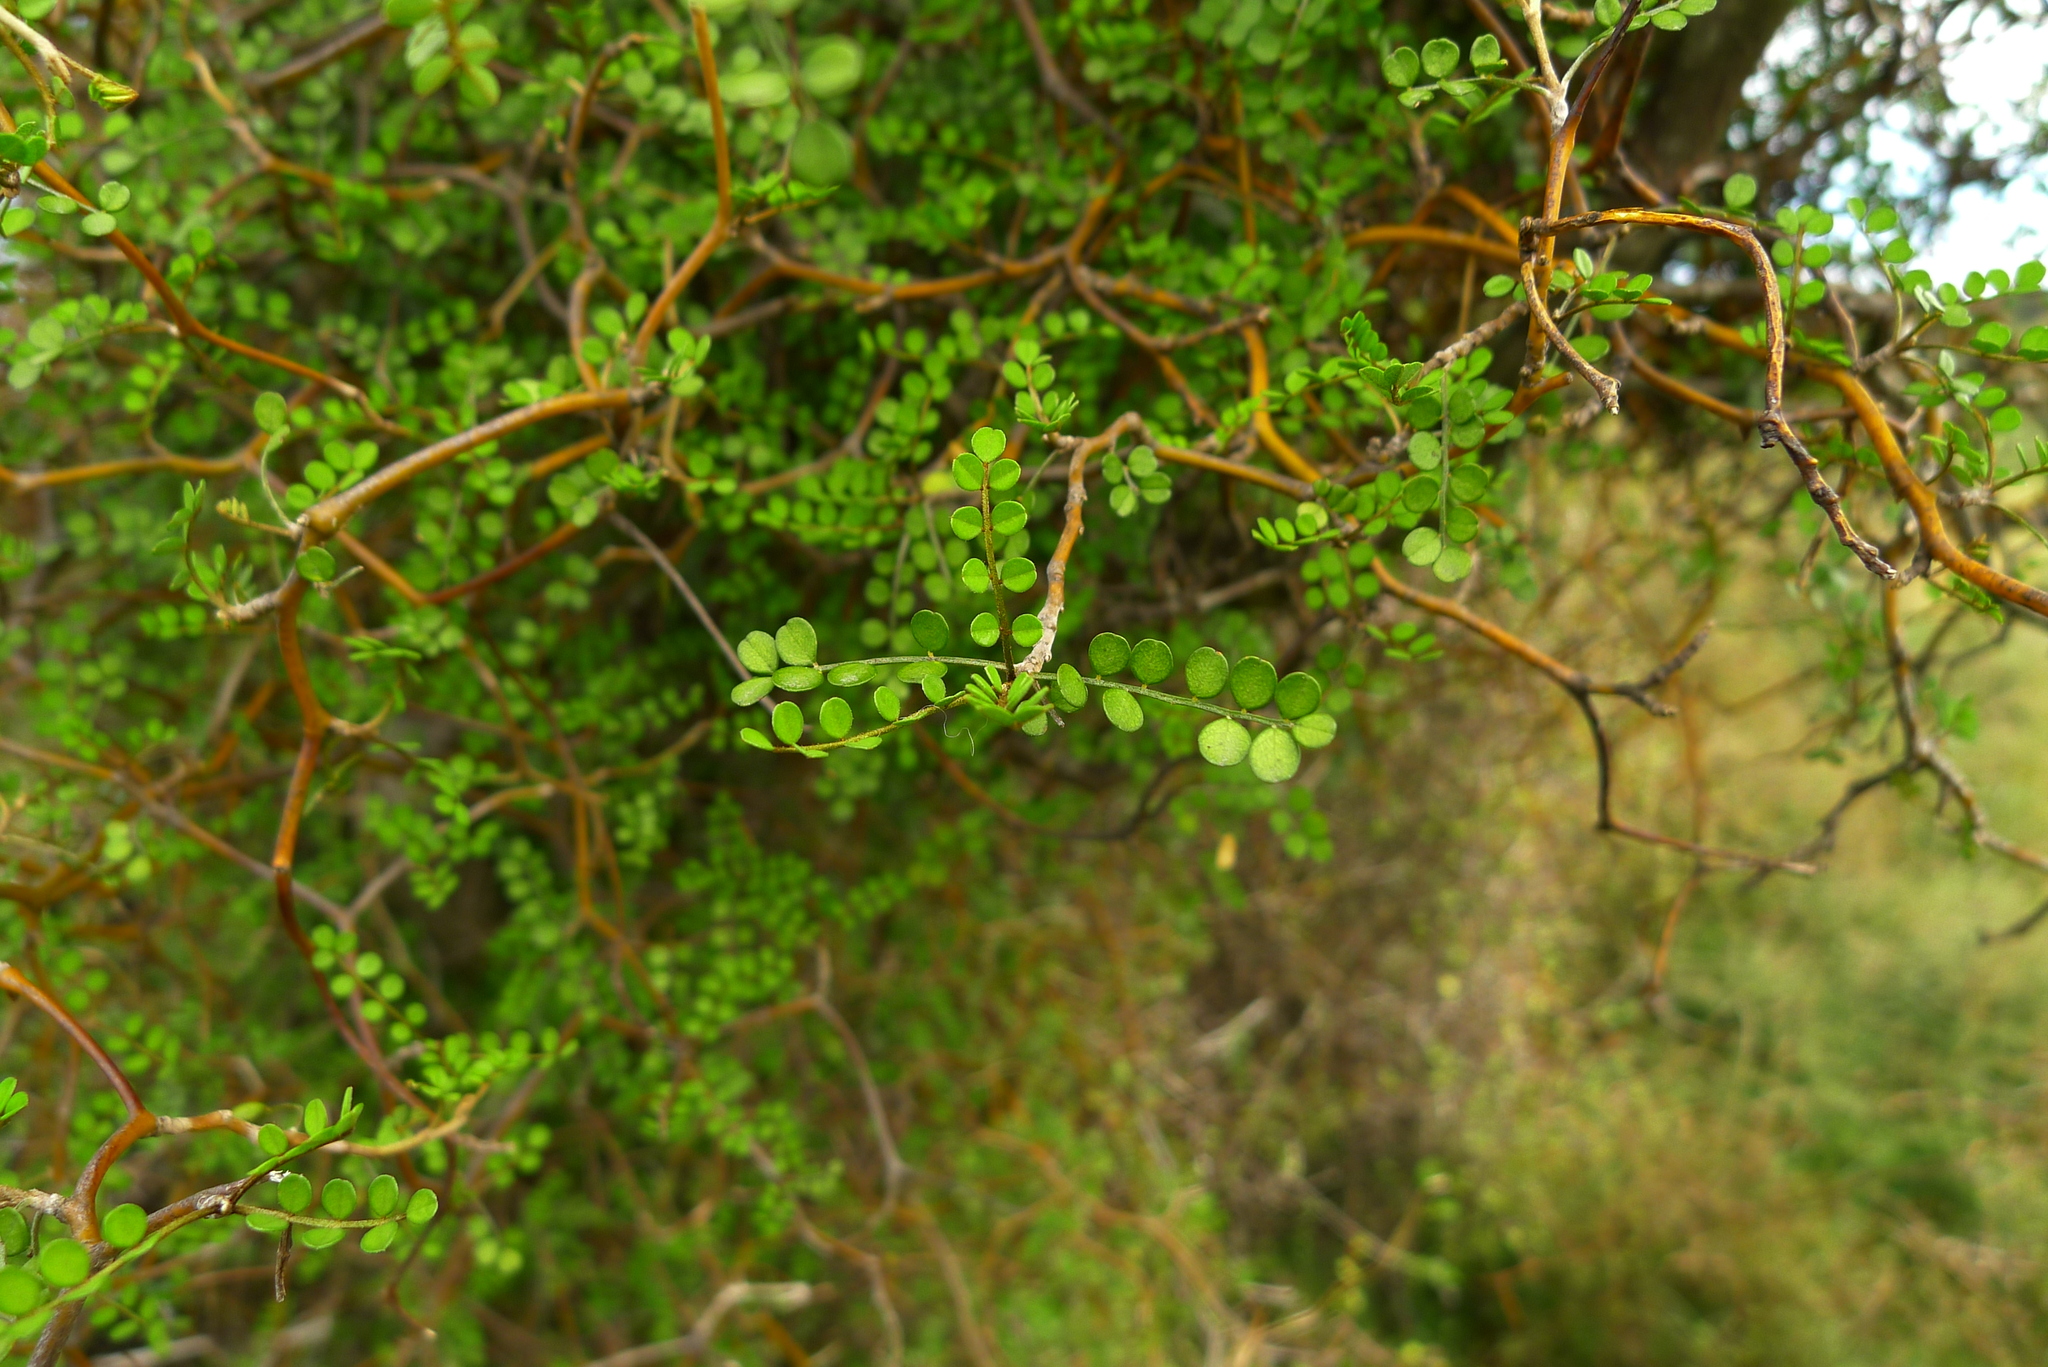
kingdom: Plantae
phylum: Tracheophyta
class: Magnoliopsida
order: Fabales
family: Fabaceae
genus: Sophora
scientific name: Sophora microphylla
